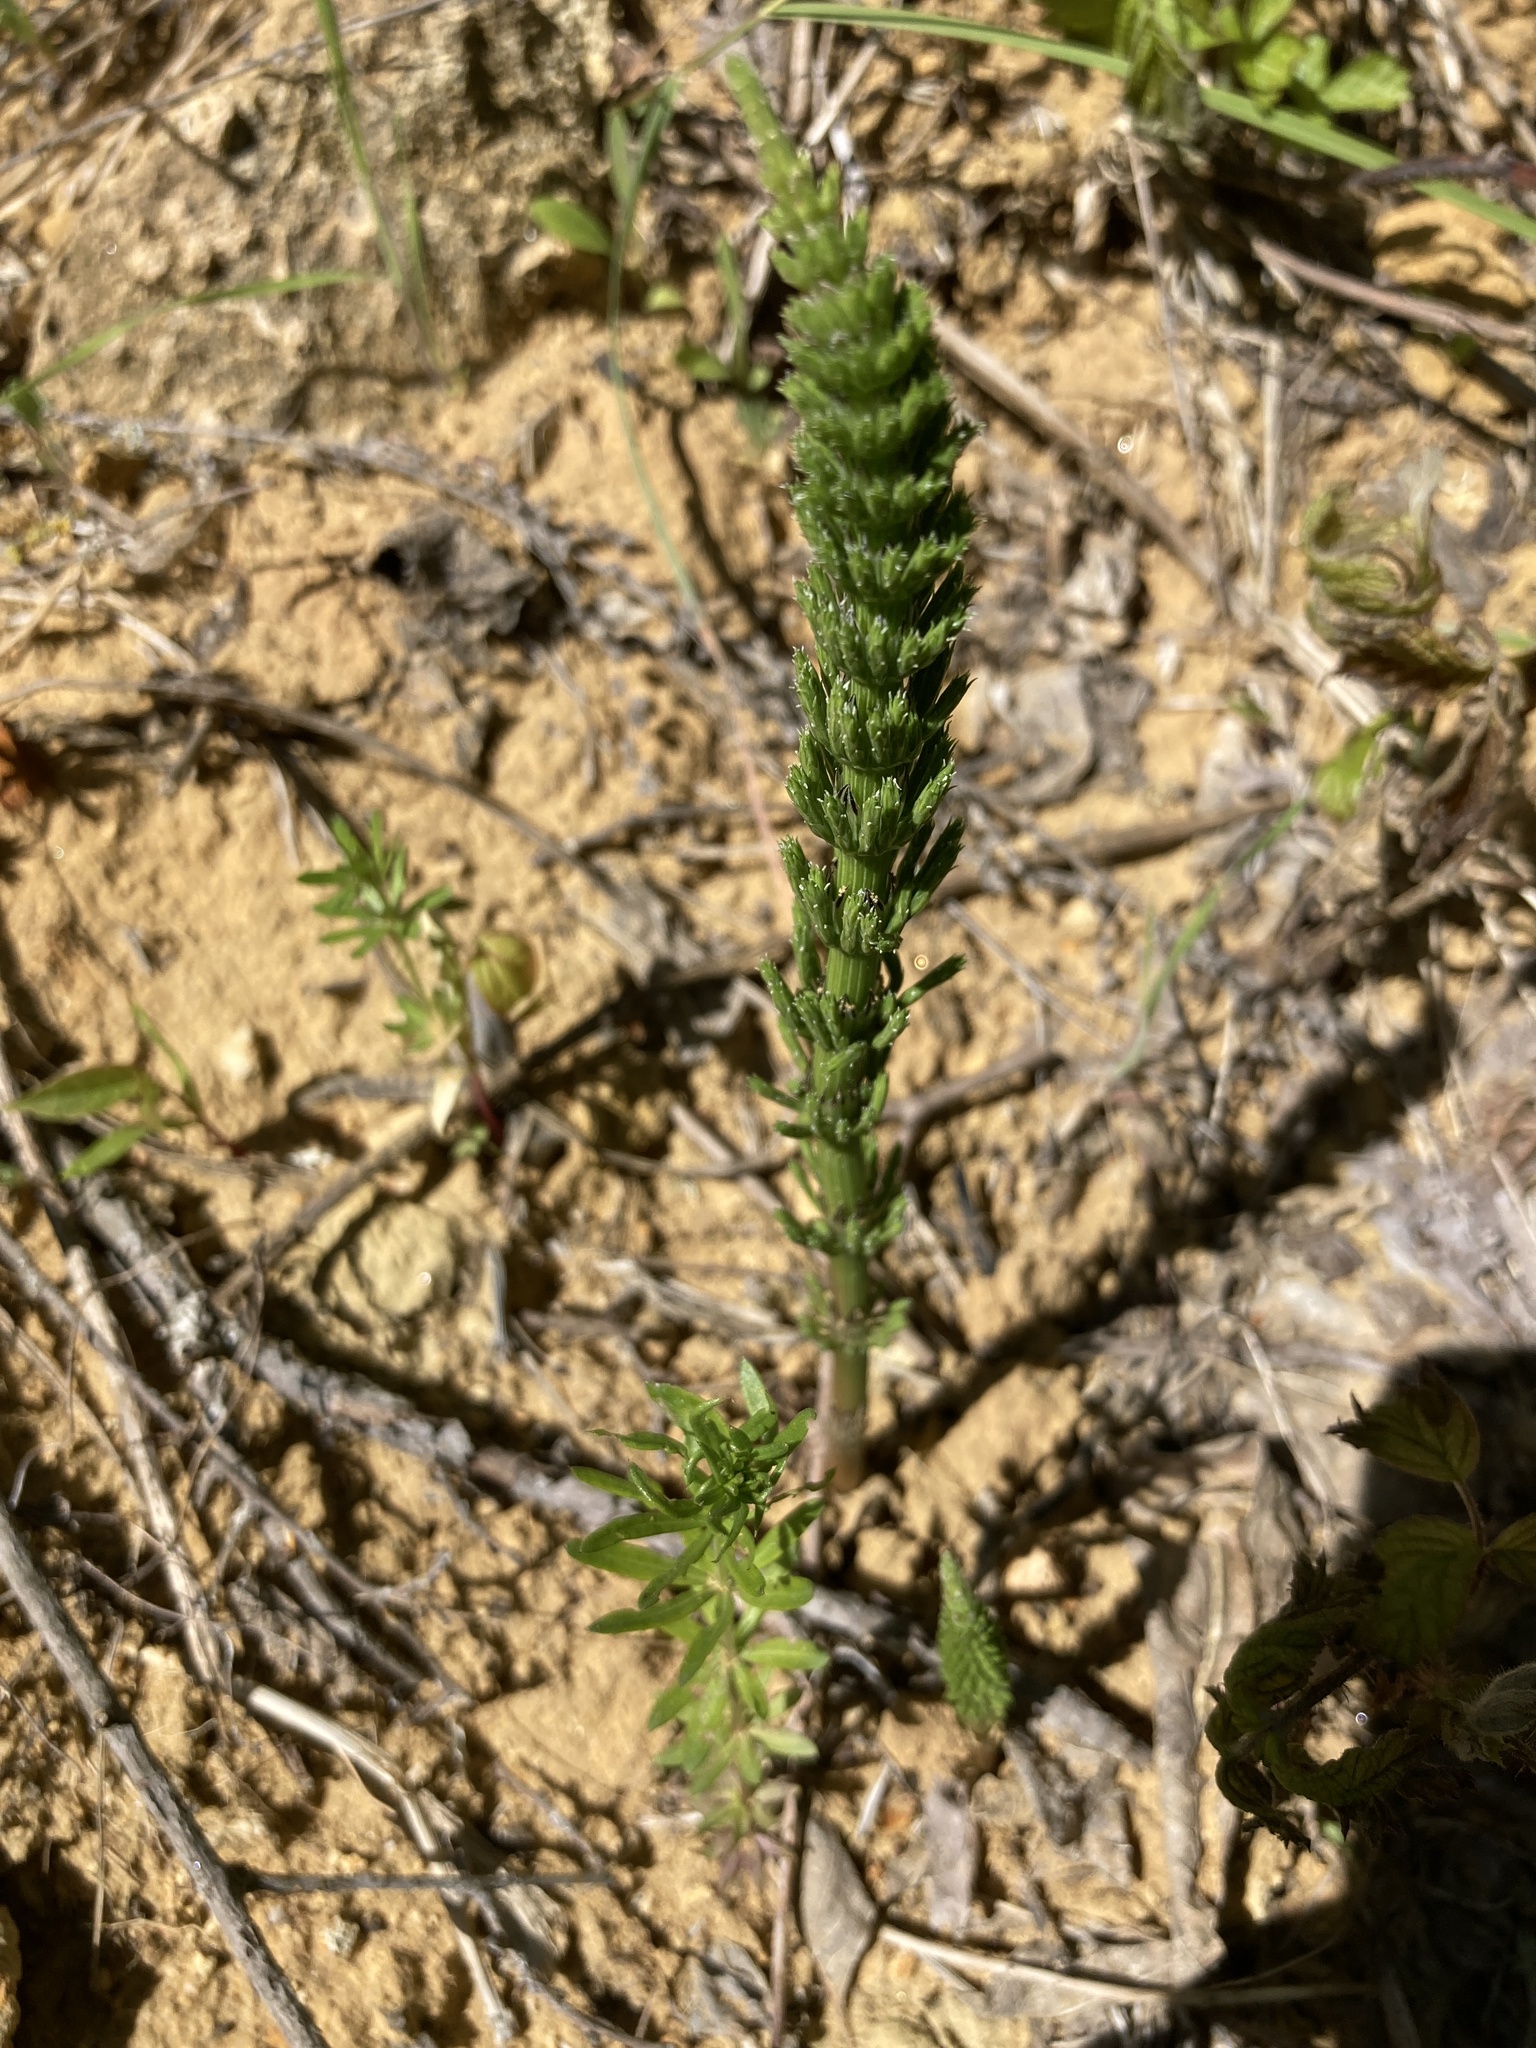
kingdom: Plantae
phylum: Tracheophyta
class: Polypodiopsida
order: Equisetales
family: Equisetaceae
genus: Equisetum
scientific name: Equisetum arvense
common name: Field horsetail
